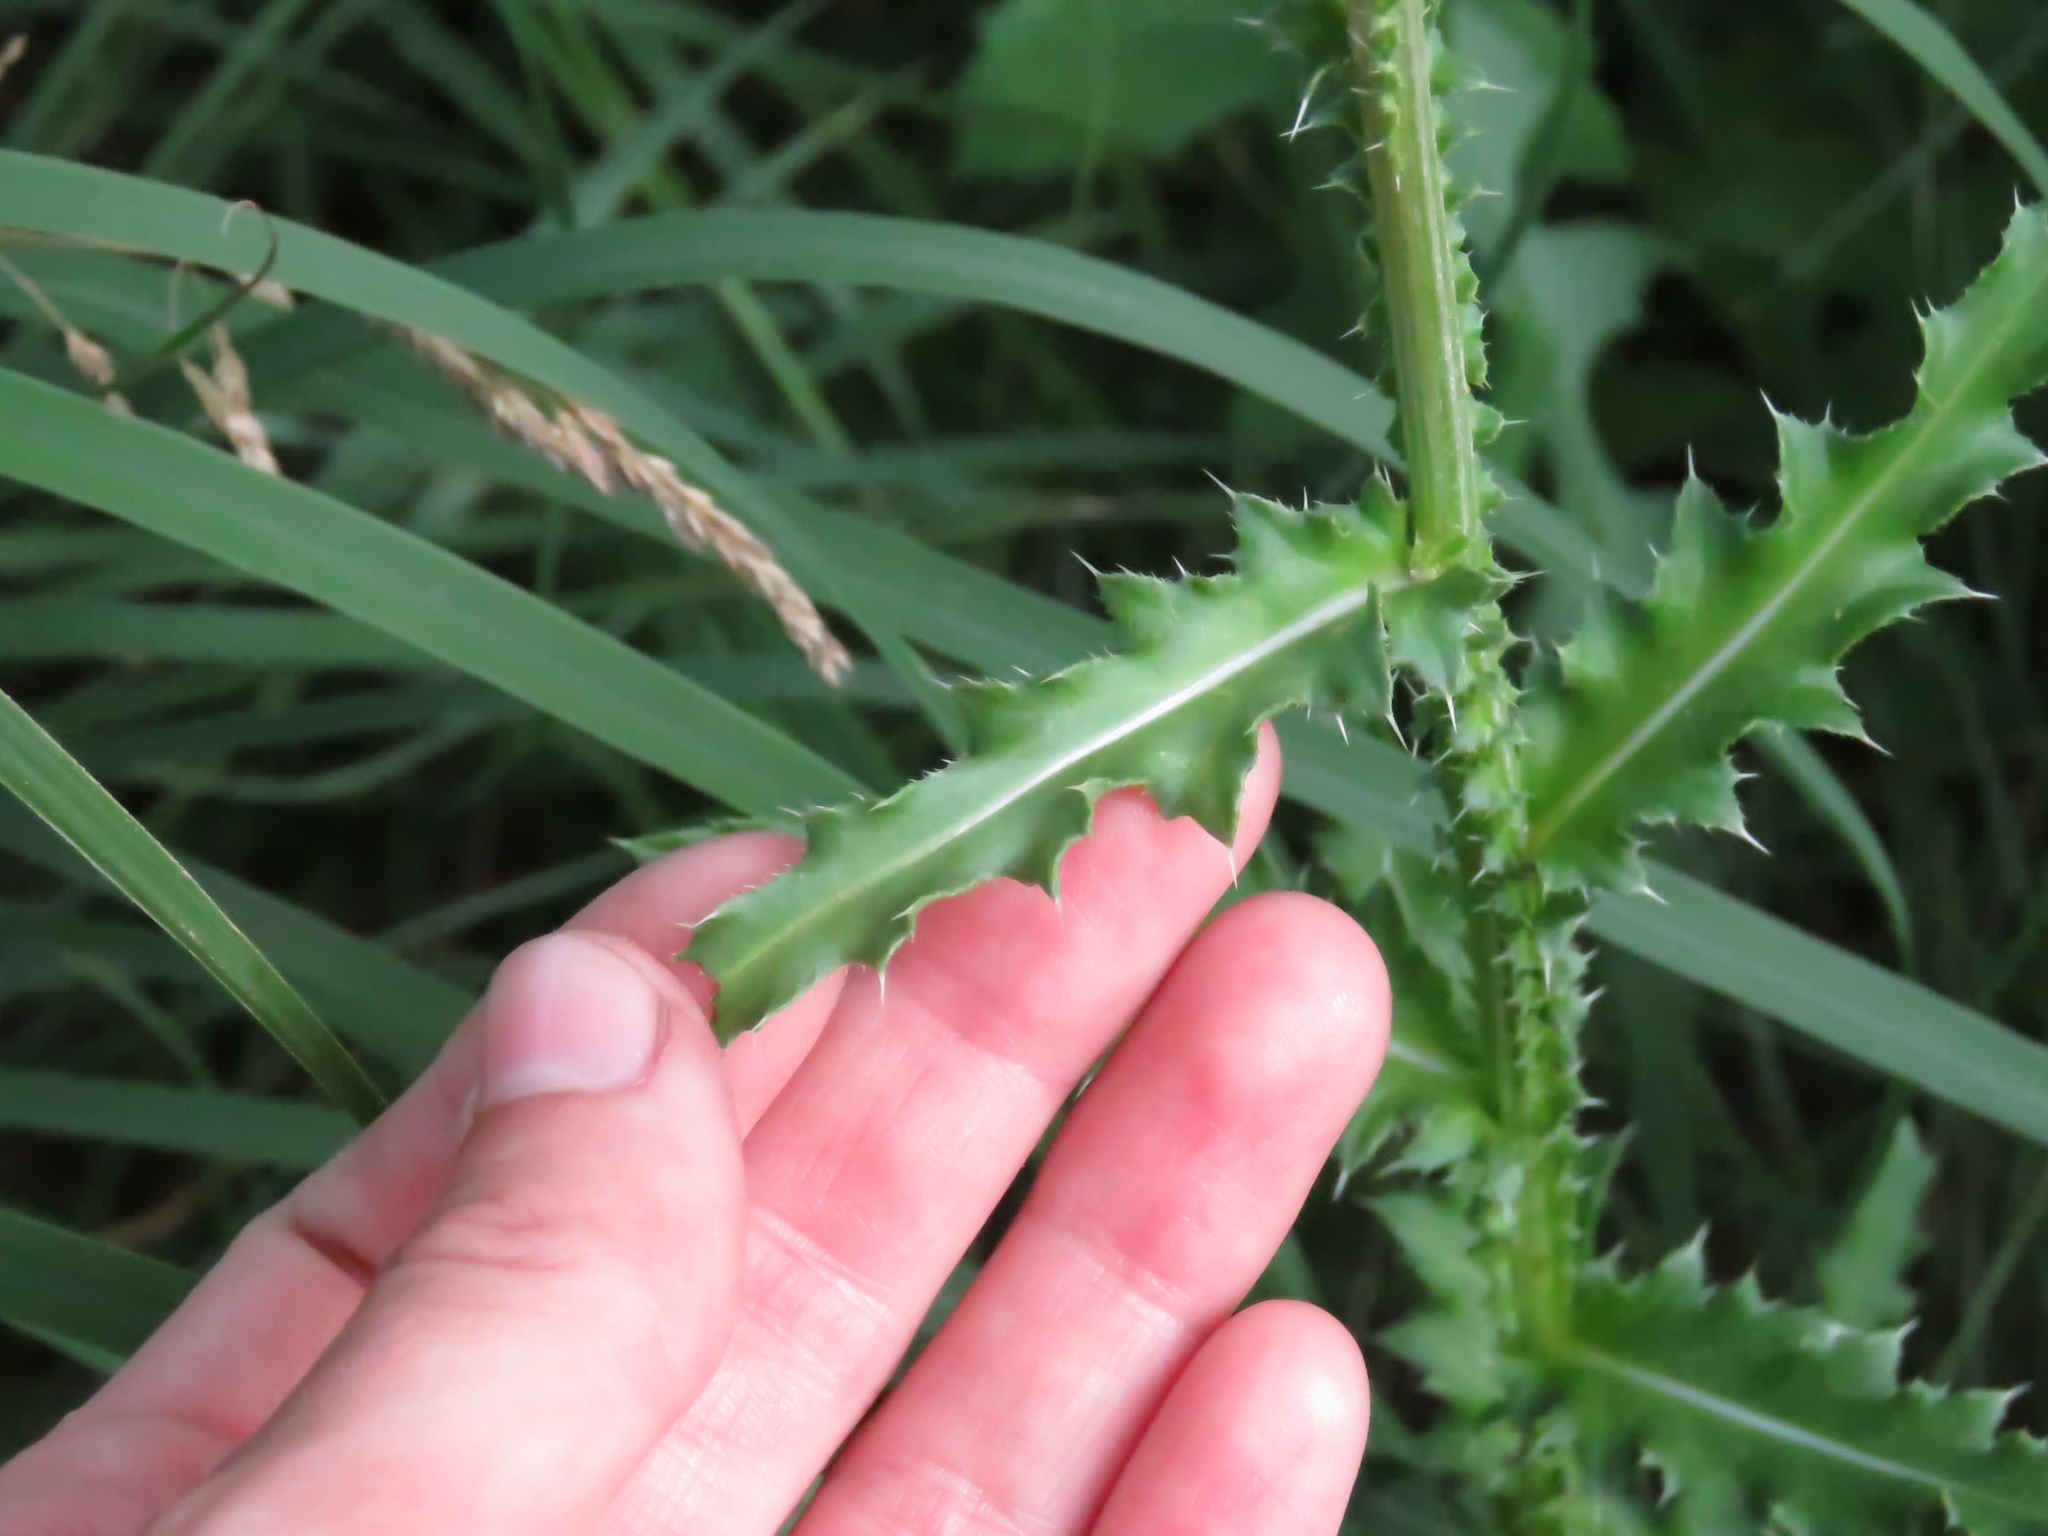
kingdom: Plantae
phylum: Tracheophyta
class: Magnoliopsida
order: Asterales
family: Asteraceae
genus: Carduus
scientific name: Carduus nutans
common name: Musk thistle
